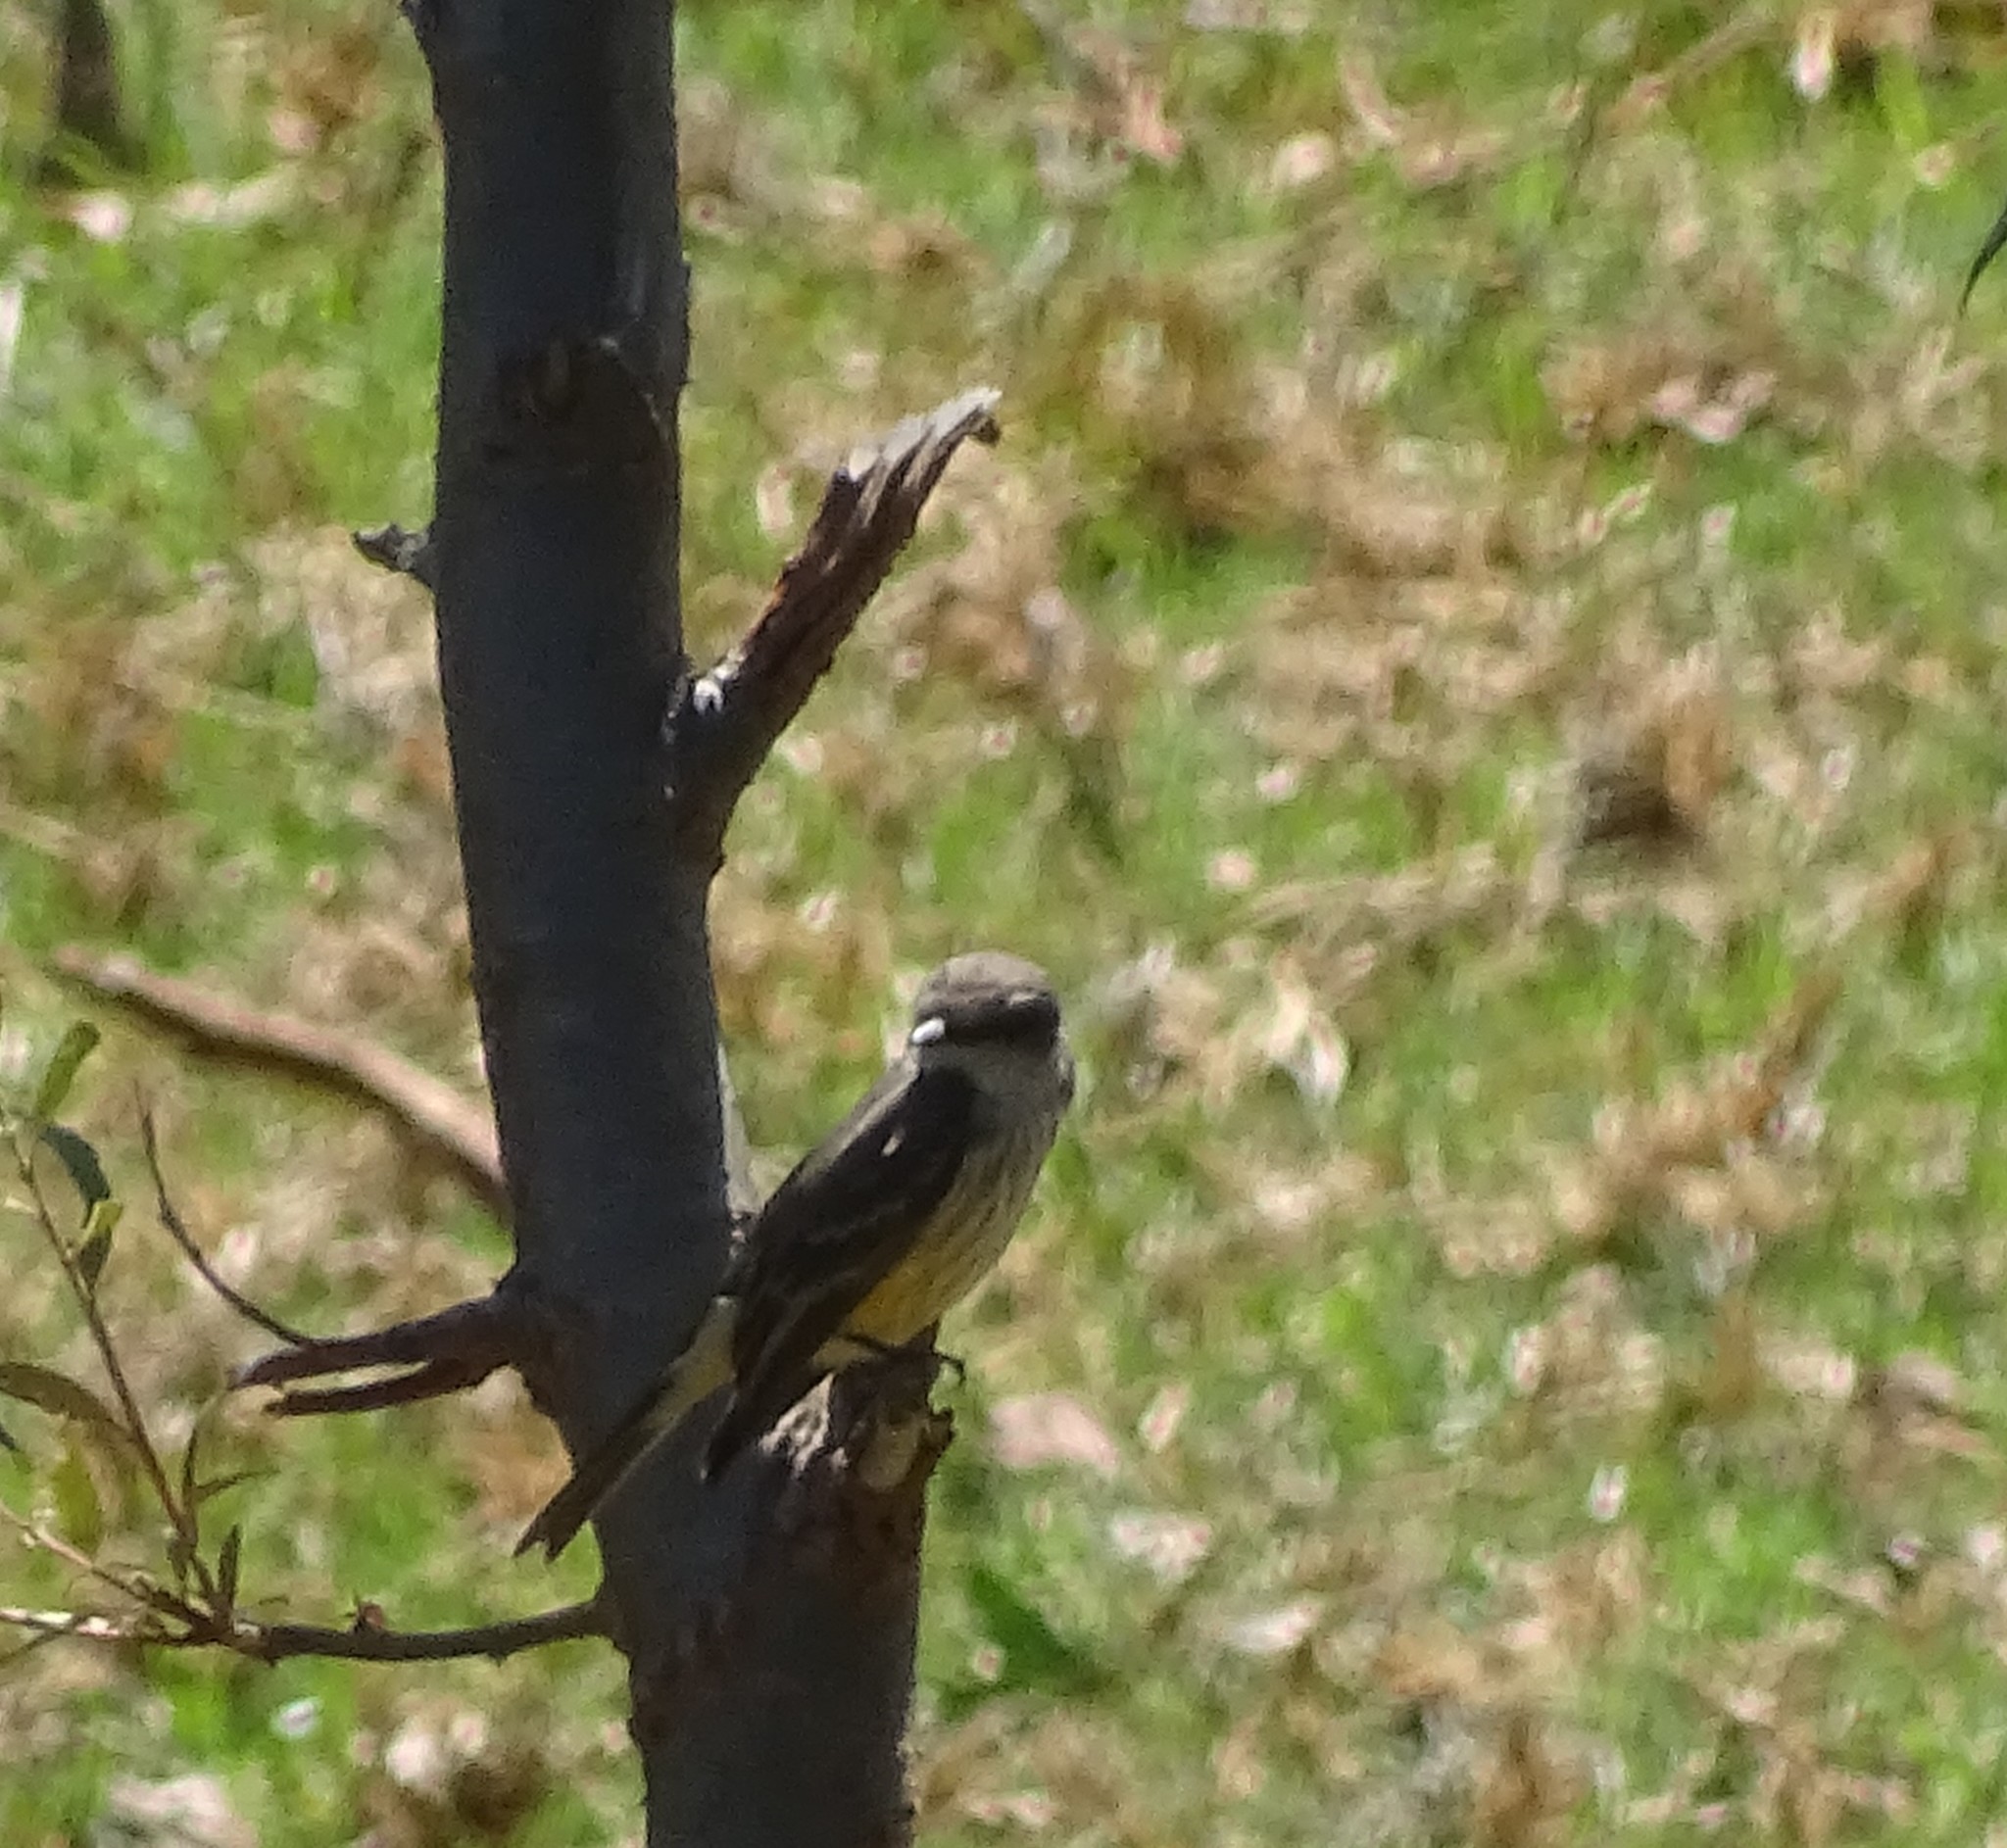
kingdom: Animalia
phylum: Chordata
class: Aves
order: Passeriformes
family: Tyrannidae
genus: Pyrocephalus
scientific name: Pyrocephalus rubinus
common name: Vermilion flycatcher
